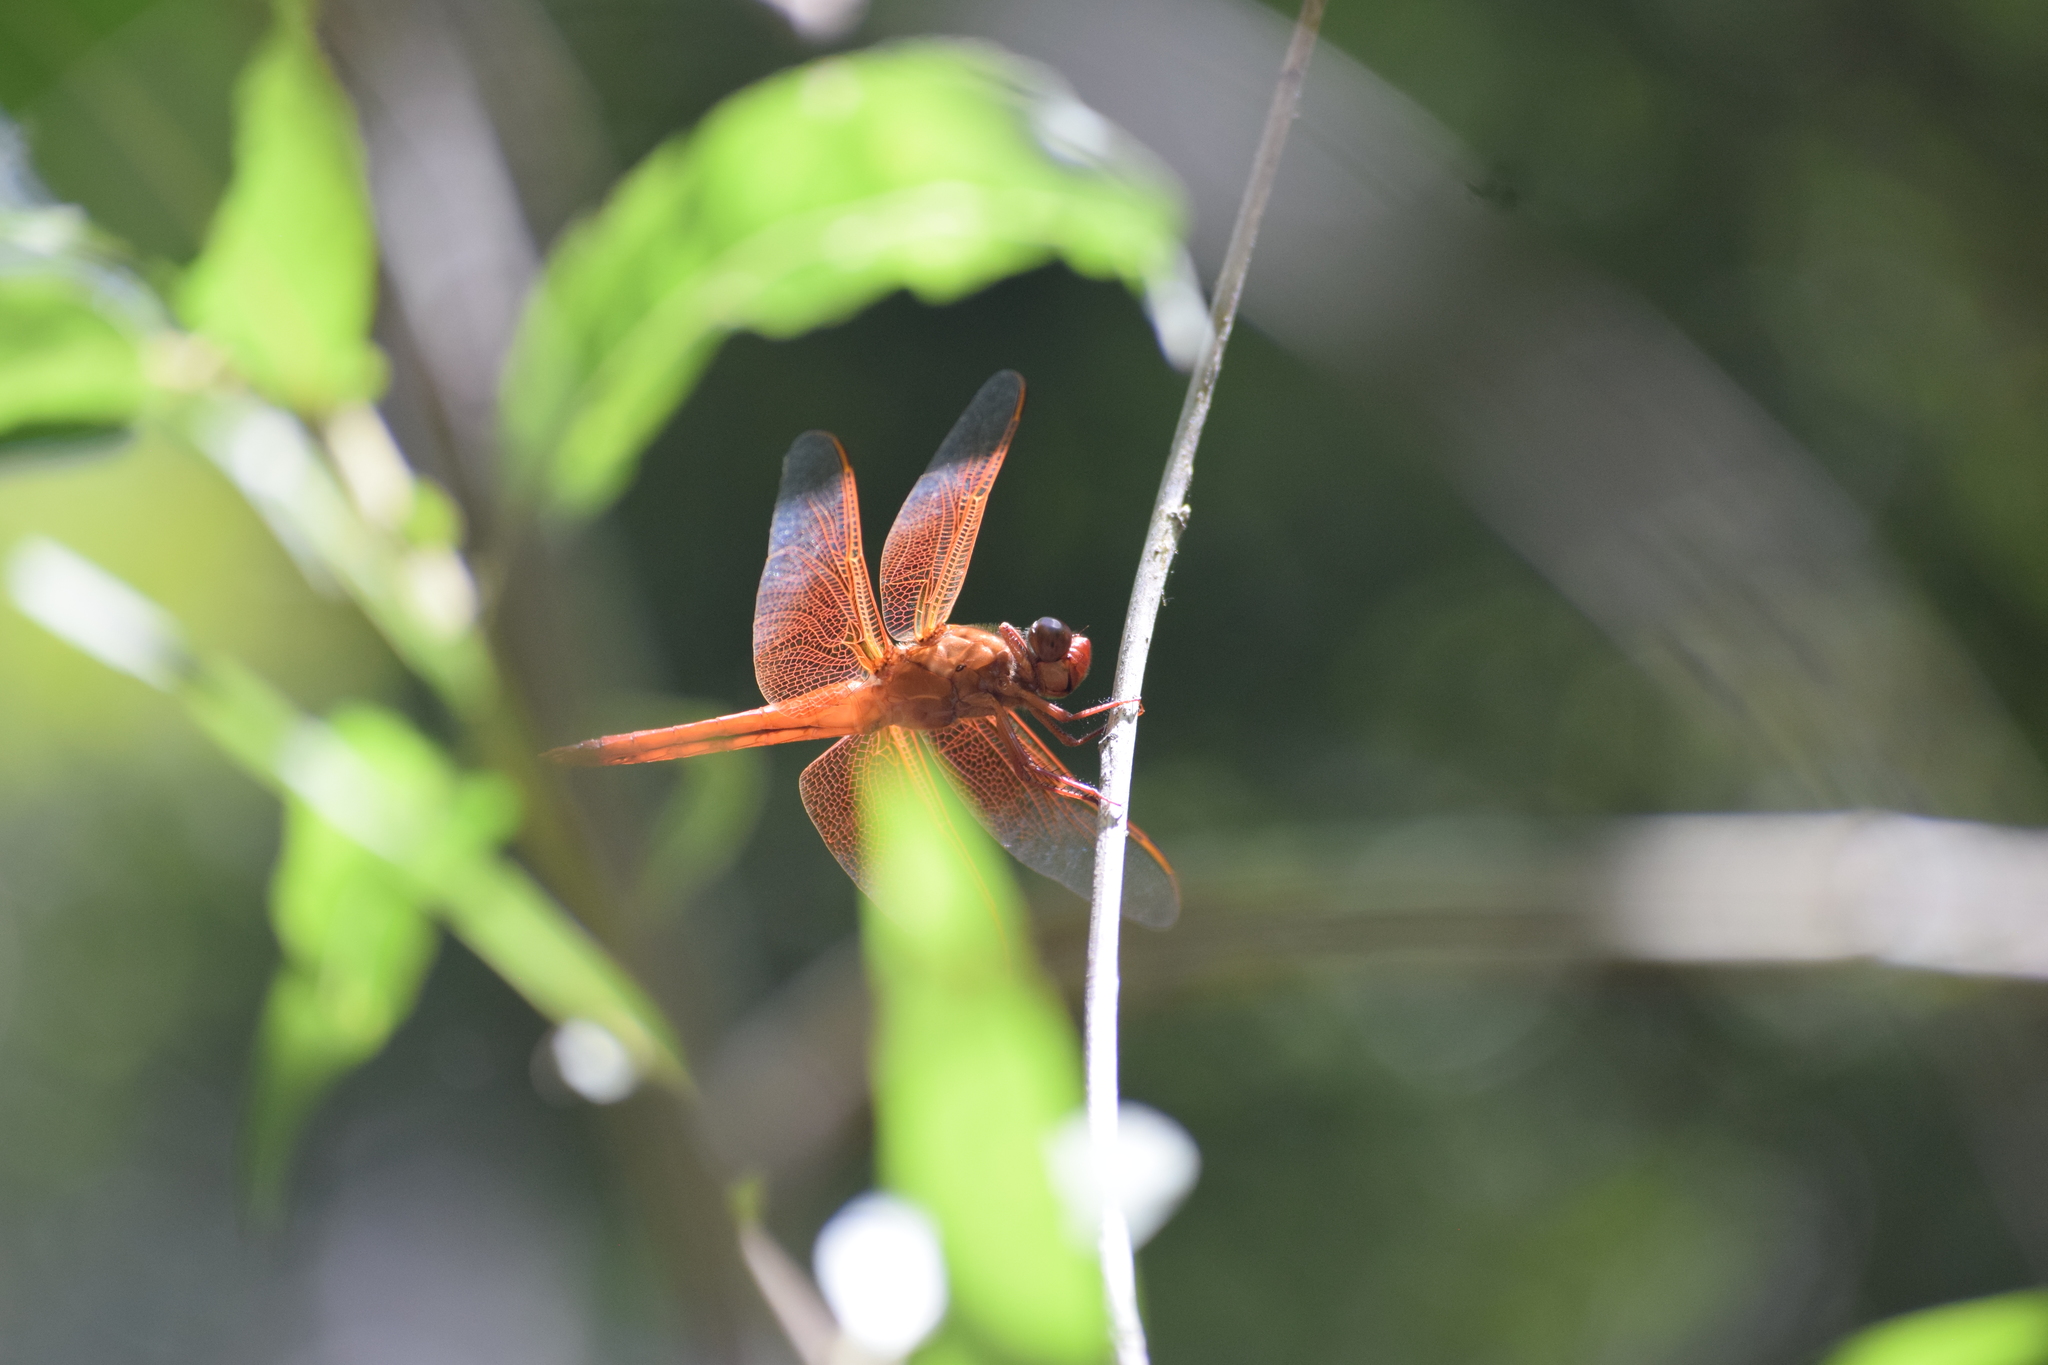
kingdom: Animalia
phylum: Arthropoda
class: Insecta
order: Odonata
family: Libellulidae
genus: Libellula
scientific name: Libellula saturata
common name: Flame skimmer
